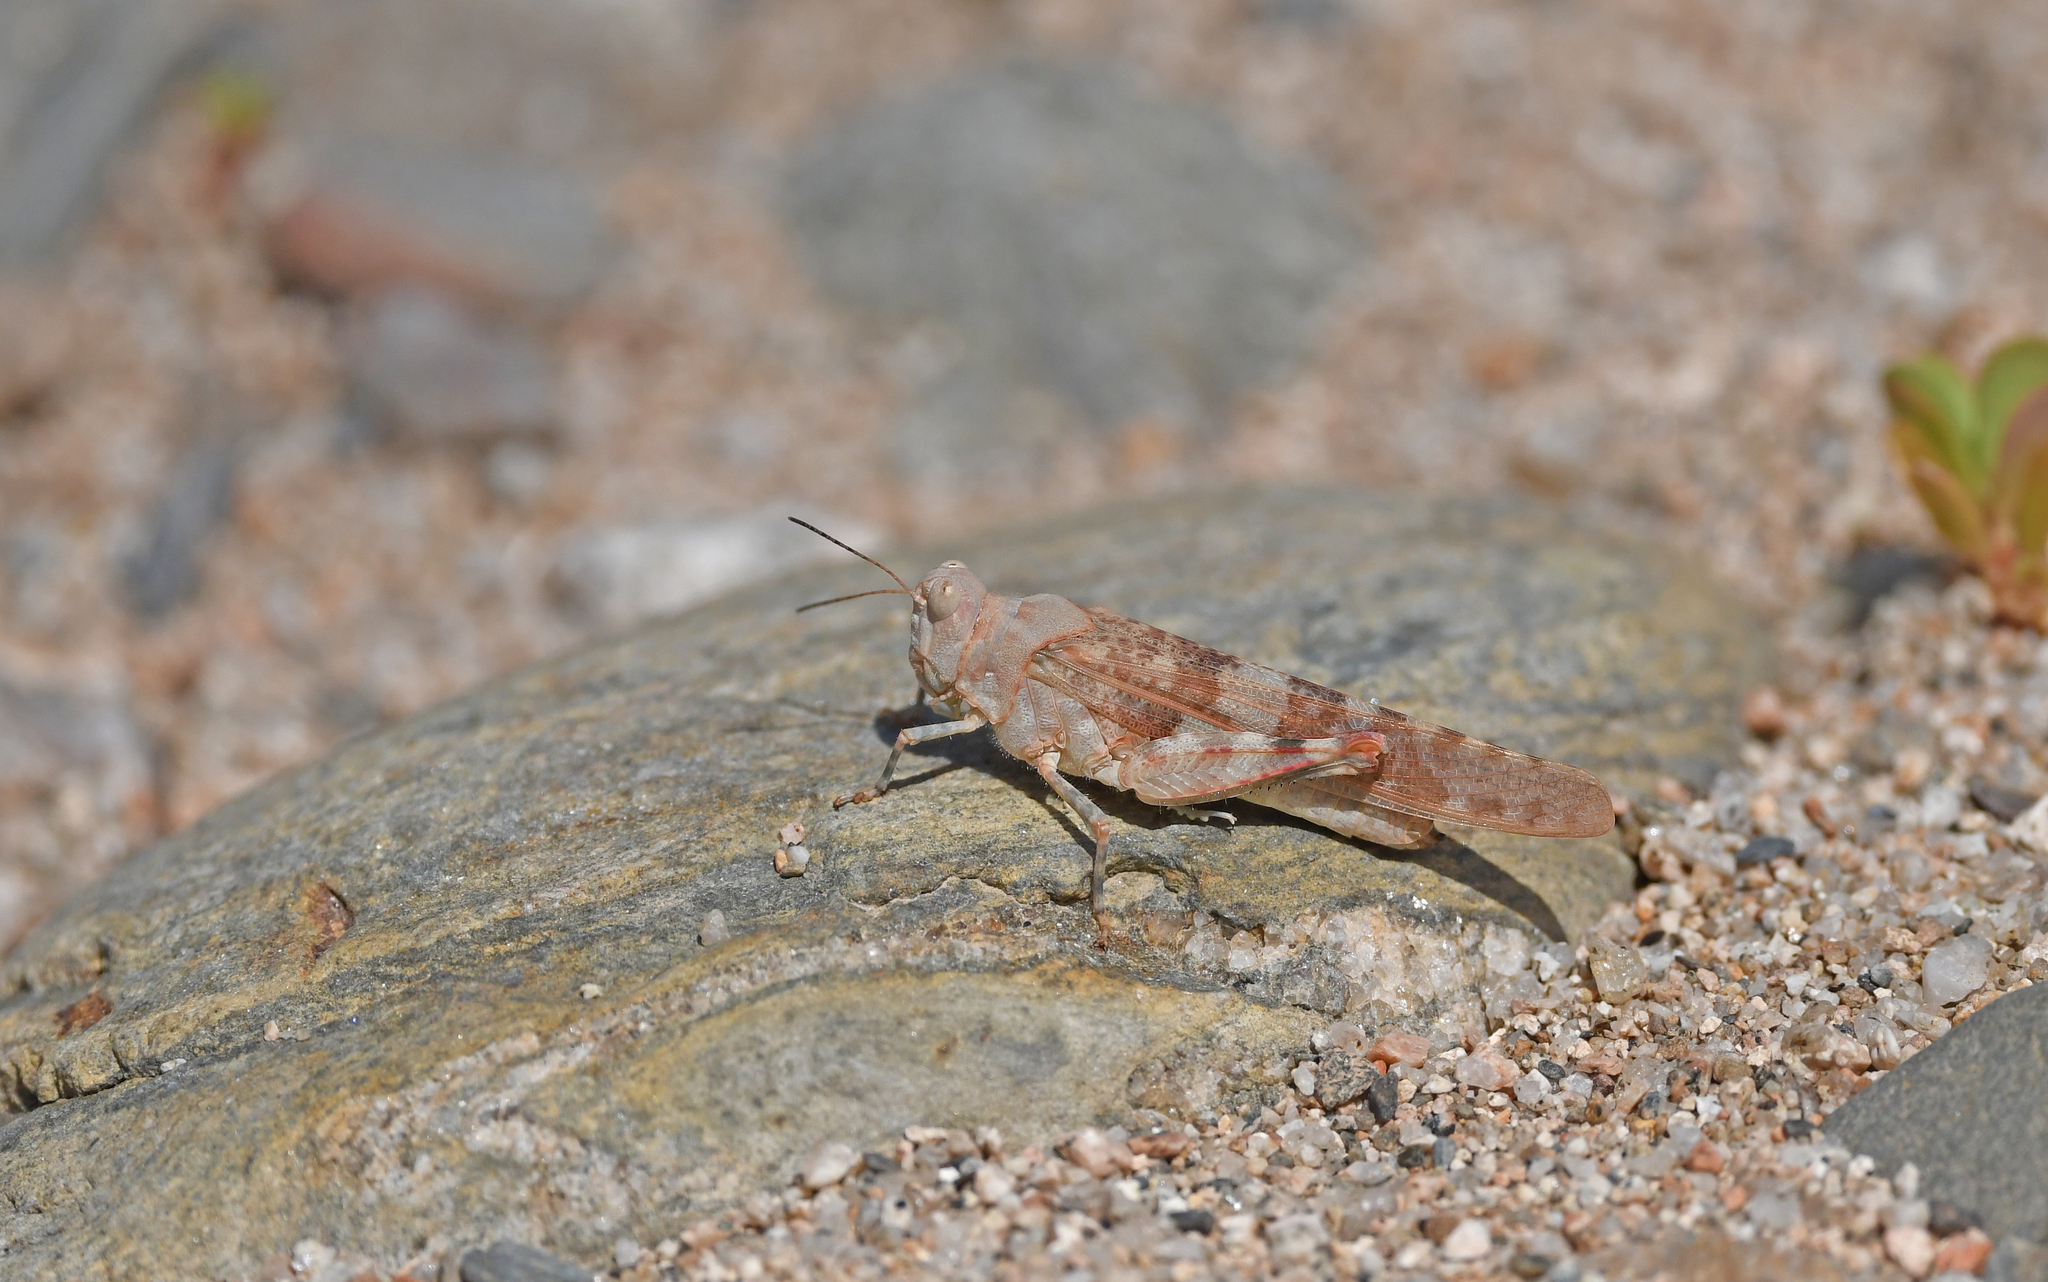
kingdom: Animalia
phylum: Arthropoda
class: Insecta
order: Orthoptera
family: Acrididae
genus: Sphingonotus
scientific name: Sphingonotus corsicus
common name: Corsican sand grasshopper
